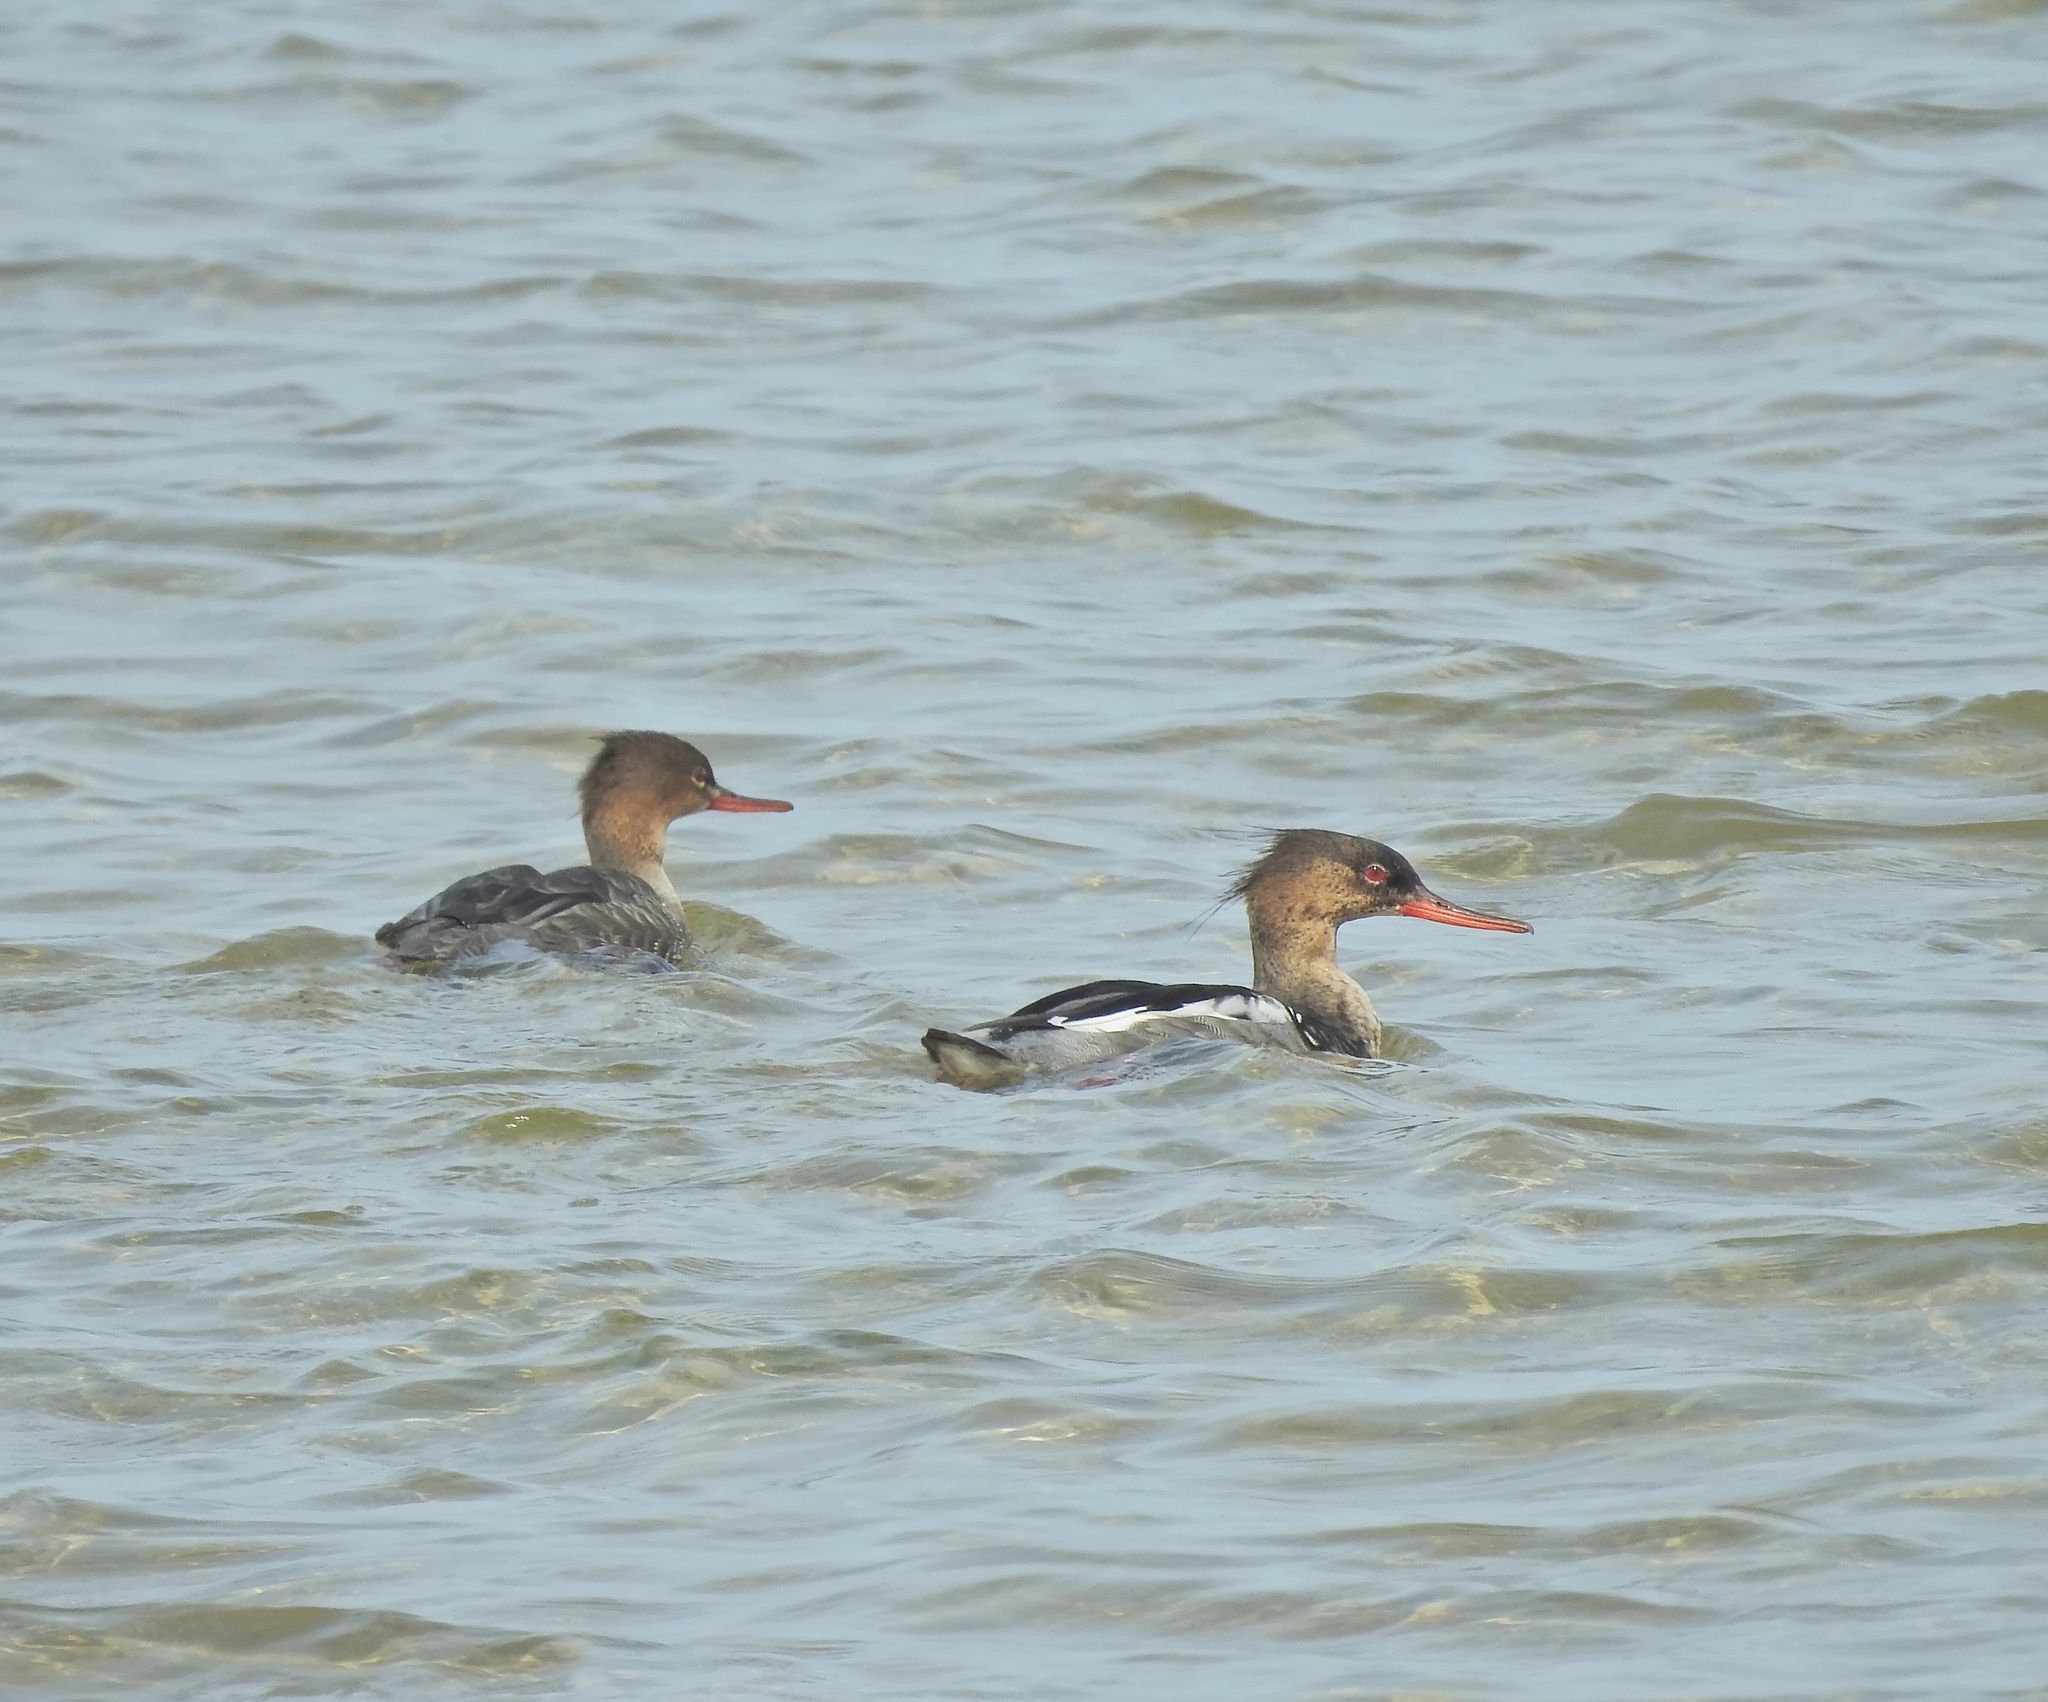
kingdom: Animalia
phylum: Chordata
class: Aves
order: Anseriformes
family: Anatidae
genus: Mergus
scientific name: Mergus serrator
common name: Red-breasted merganser
